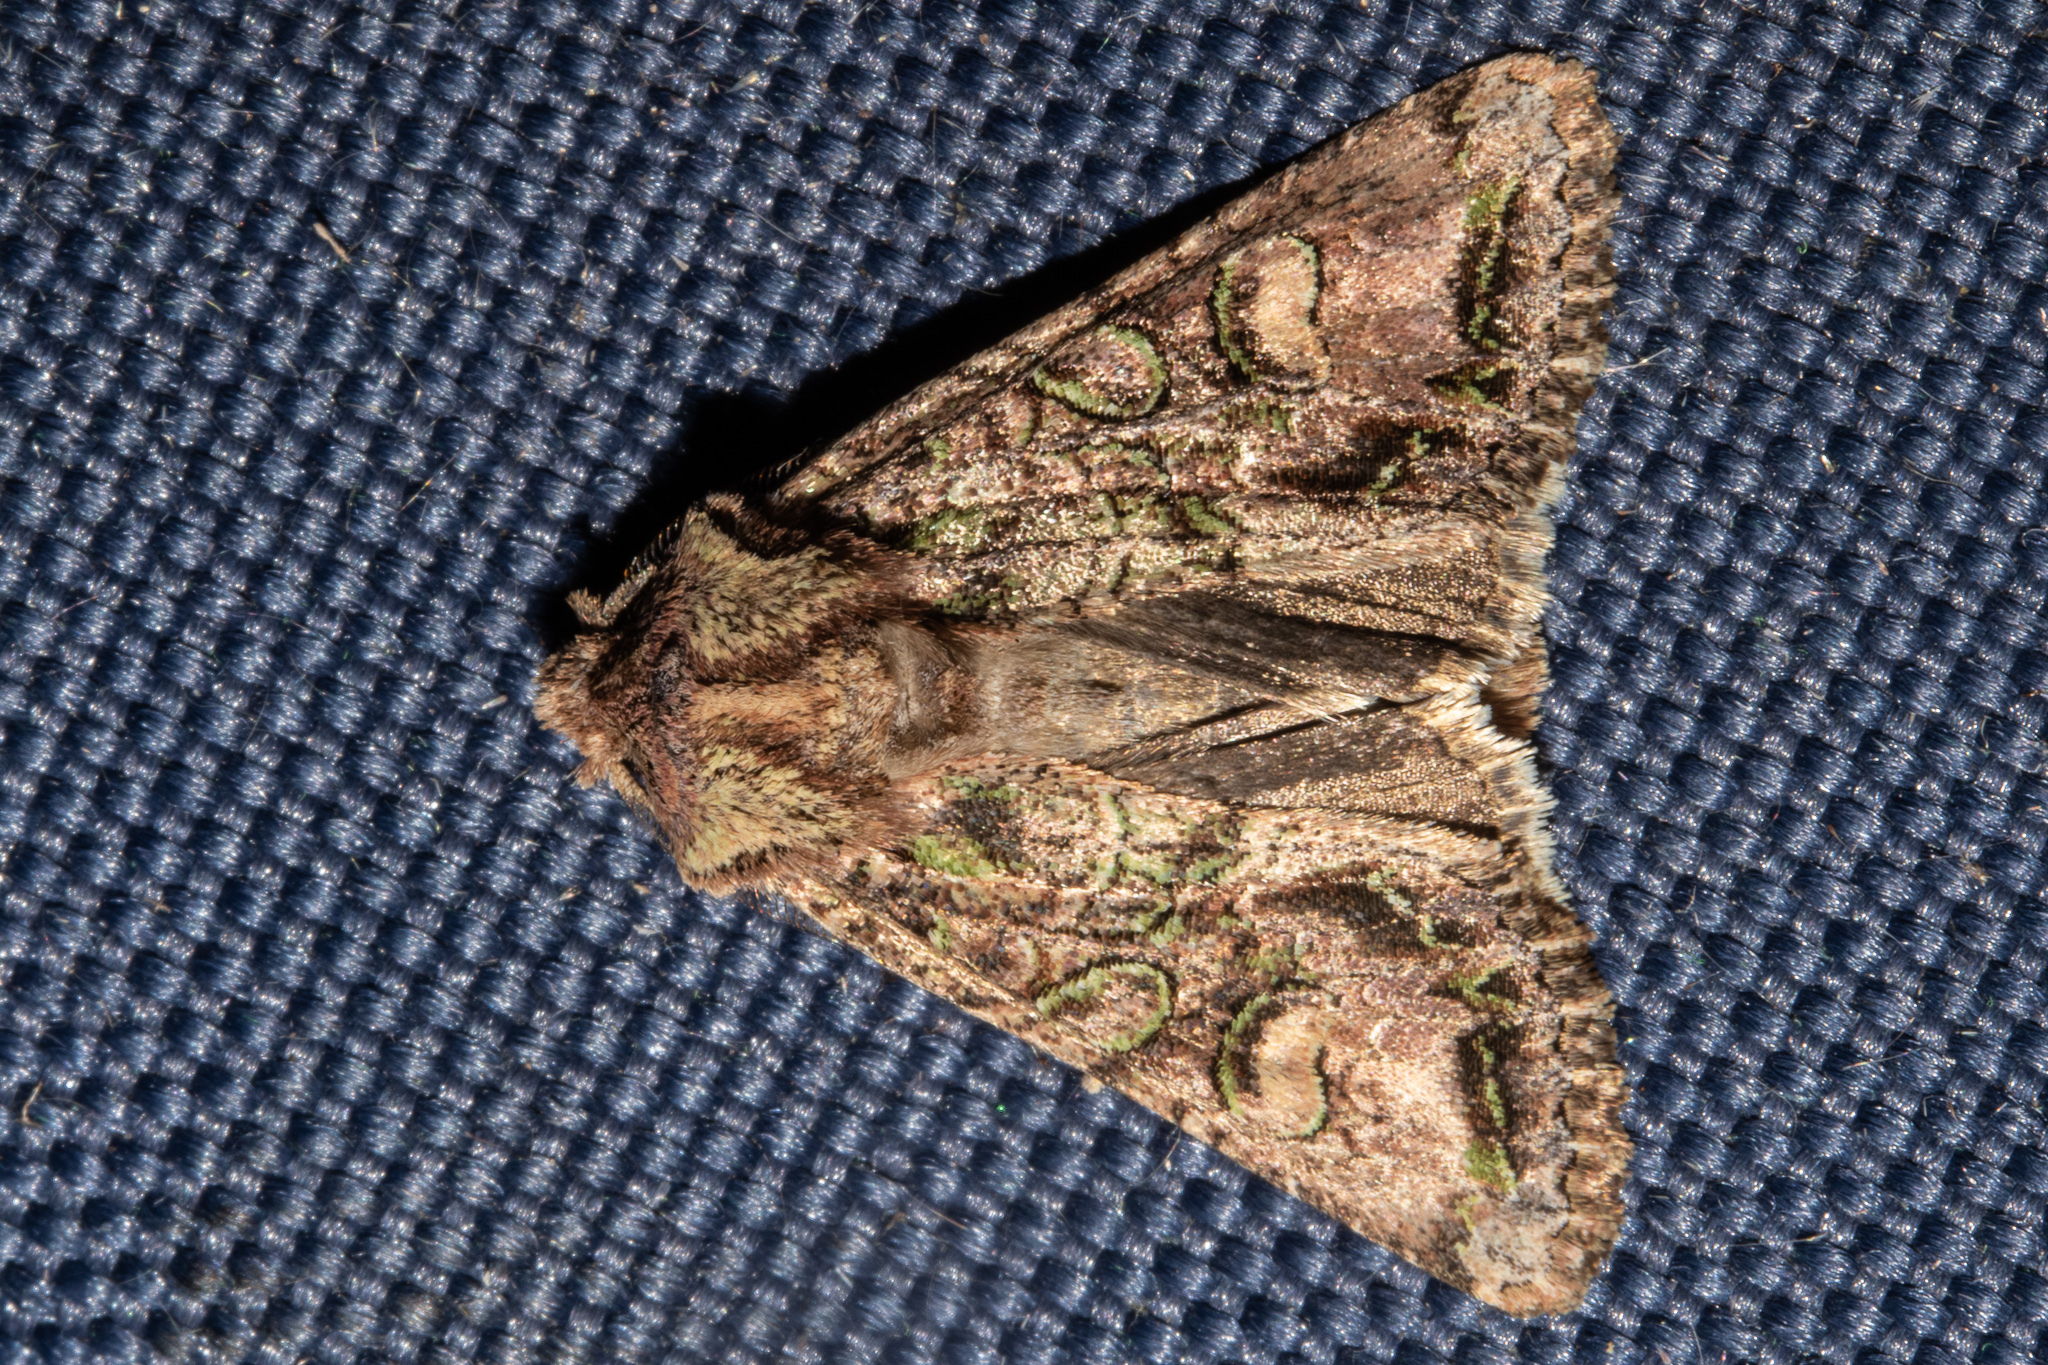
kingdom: Animalia
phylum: Arthropoda
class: Insecta
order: Lepidoptera
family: Noctuidae
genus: Ichneutica
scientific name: Ichneutica skelloni
